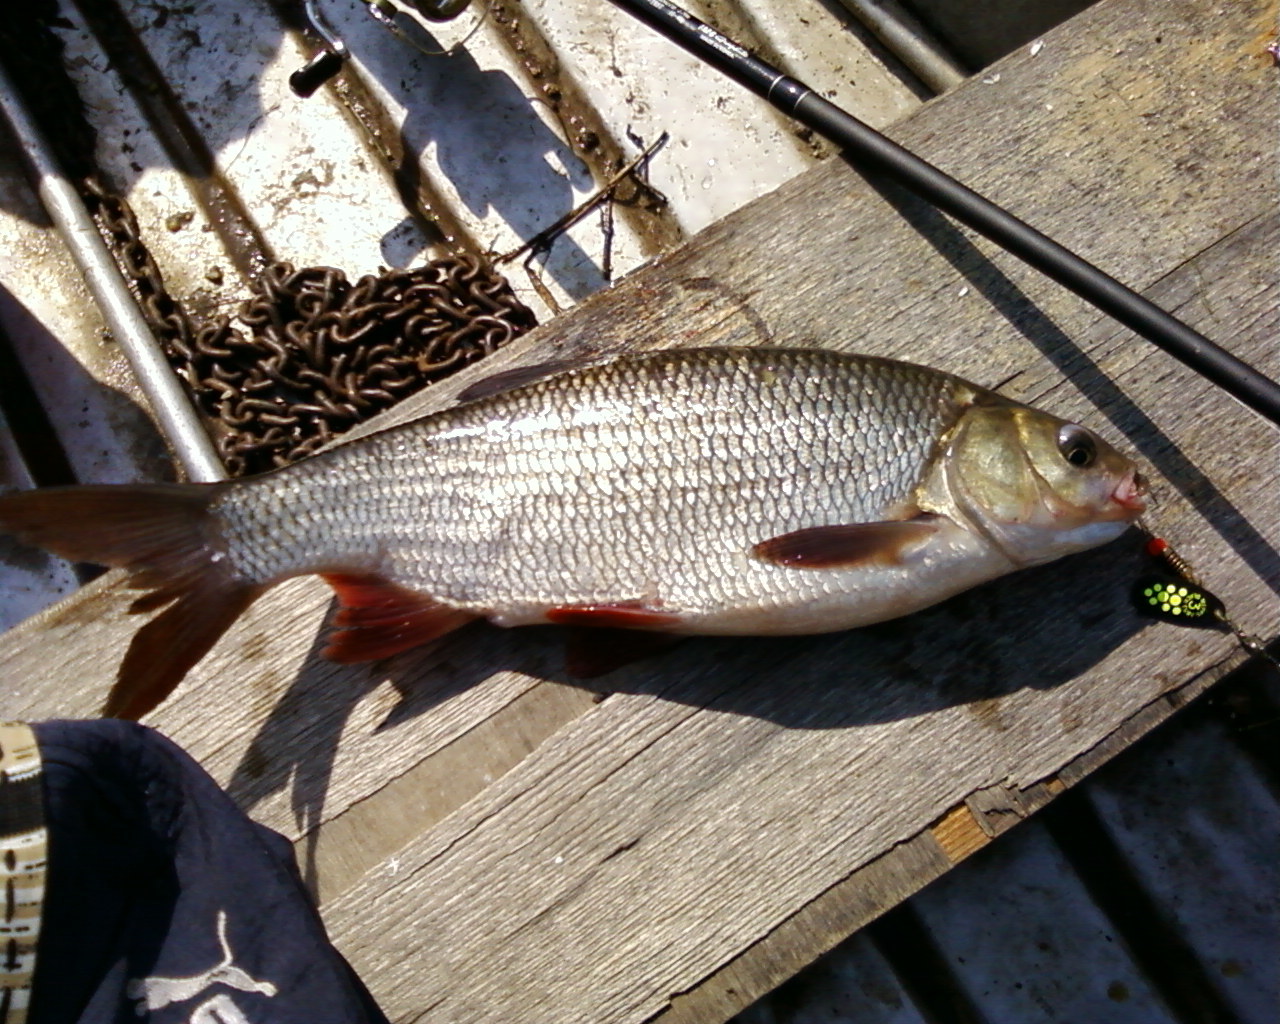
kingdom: Animalia
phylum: Chordata
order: Cypriniformes
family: Cyprinidae
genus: Leuciscus
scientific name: Leuciscus idus
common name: Ide
